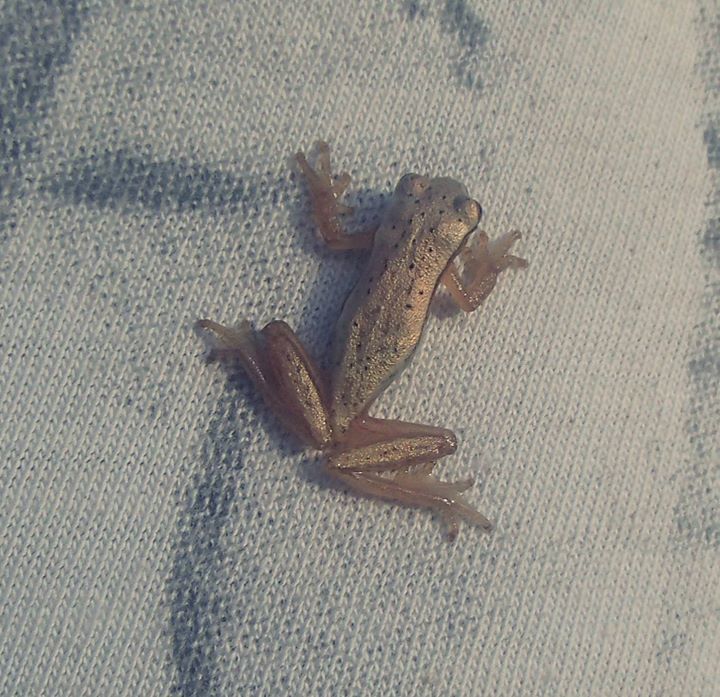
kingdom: Animalia
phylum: Chordata
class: Amphibia
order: Anura
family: Hylidae
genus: Dendropsophus
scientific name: Dendropsophus
